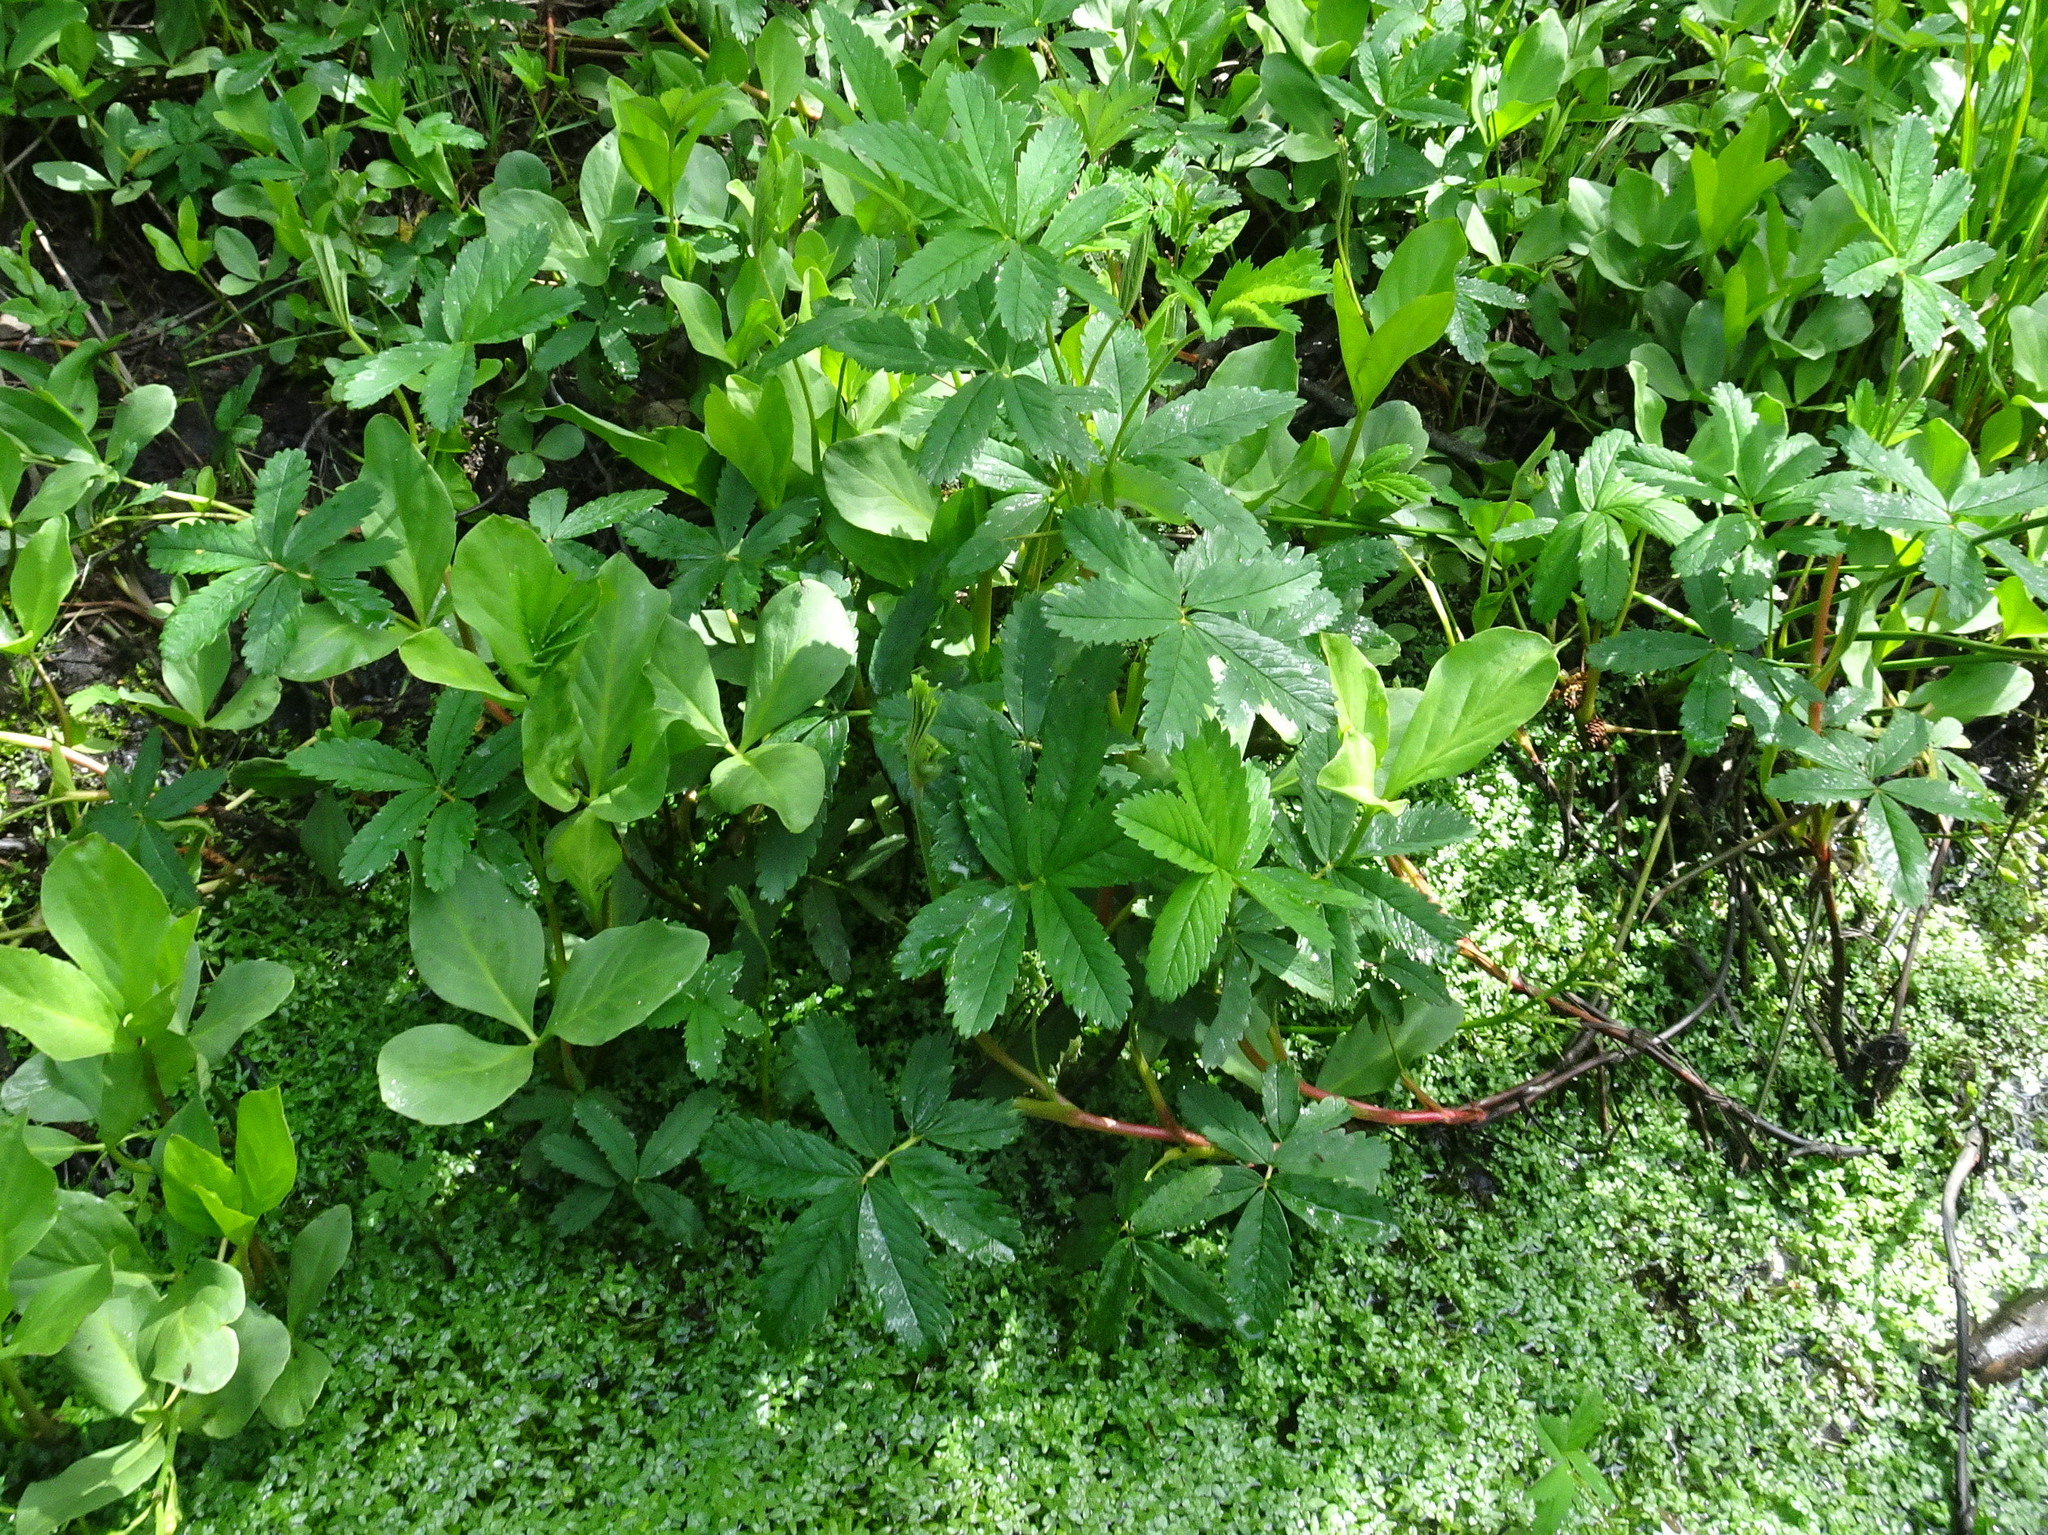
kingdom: Plantae
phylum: Tracheophyta
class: Magnoliopsida
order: Rosales
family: Rosaceae
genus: Comarum
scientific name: Comarum palustre
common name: Marsh cinquefoil
